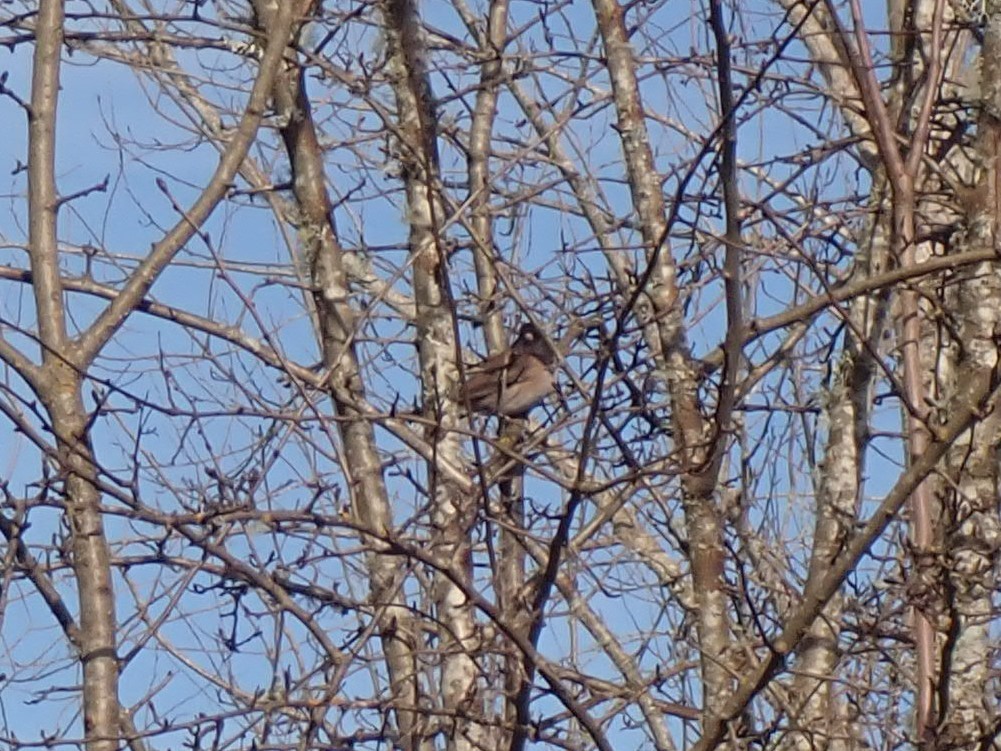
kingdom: Animalia
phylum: Chordata
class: Aves
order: Passeriformes
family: Passerellidae
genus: Junco
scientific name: Junco hyemalis
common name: Dark-eyed junco
